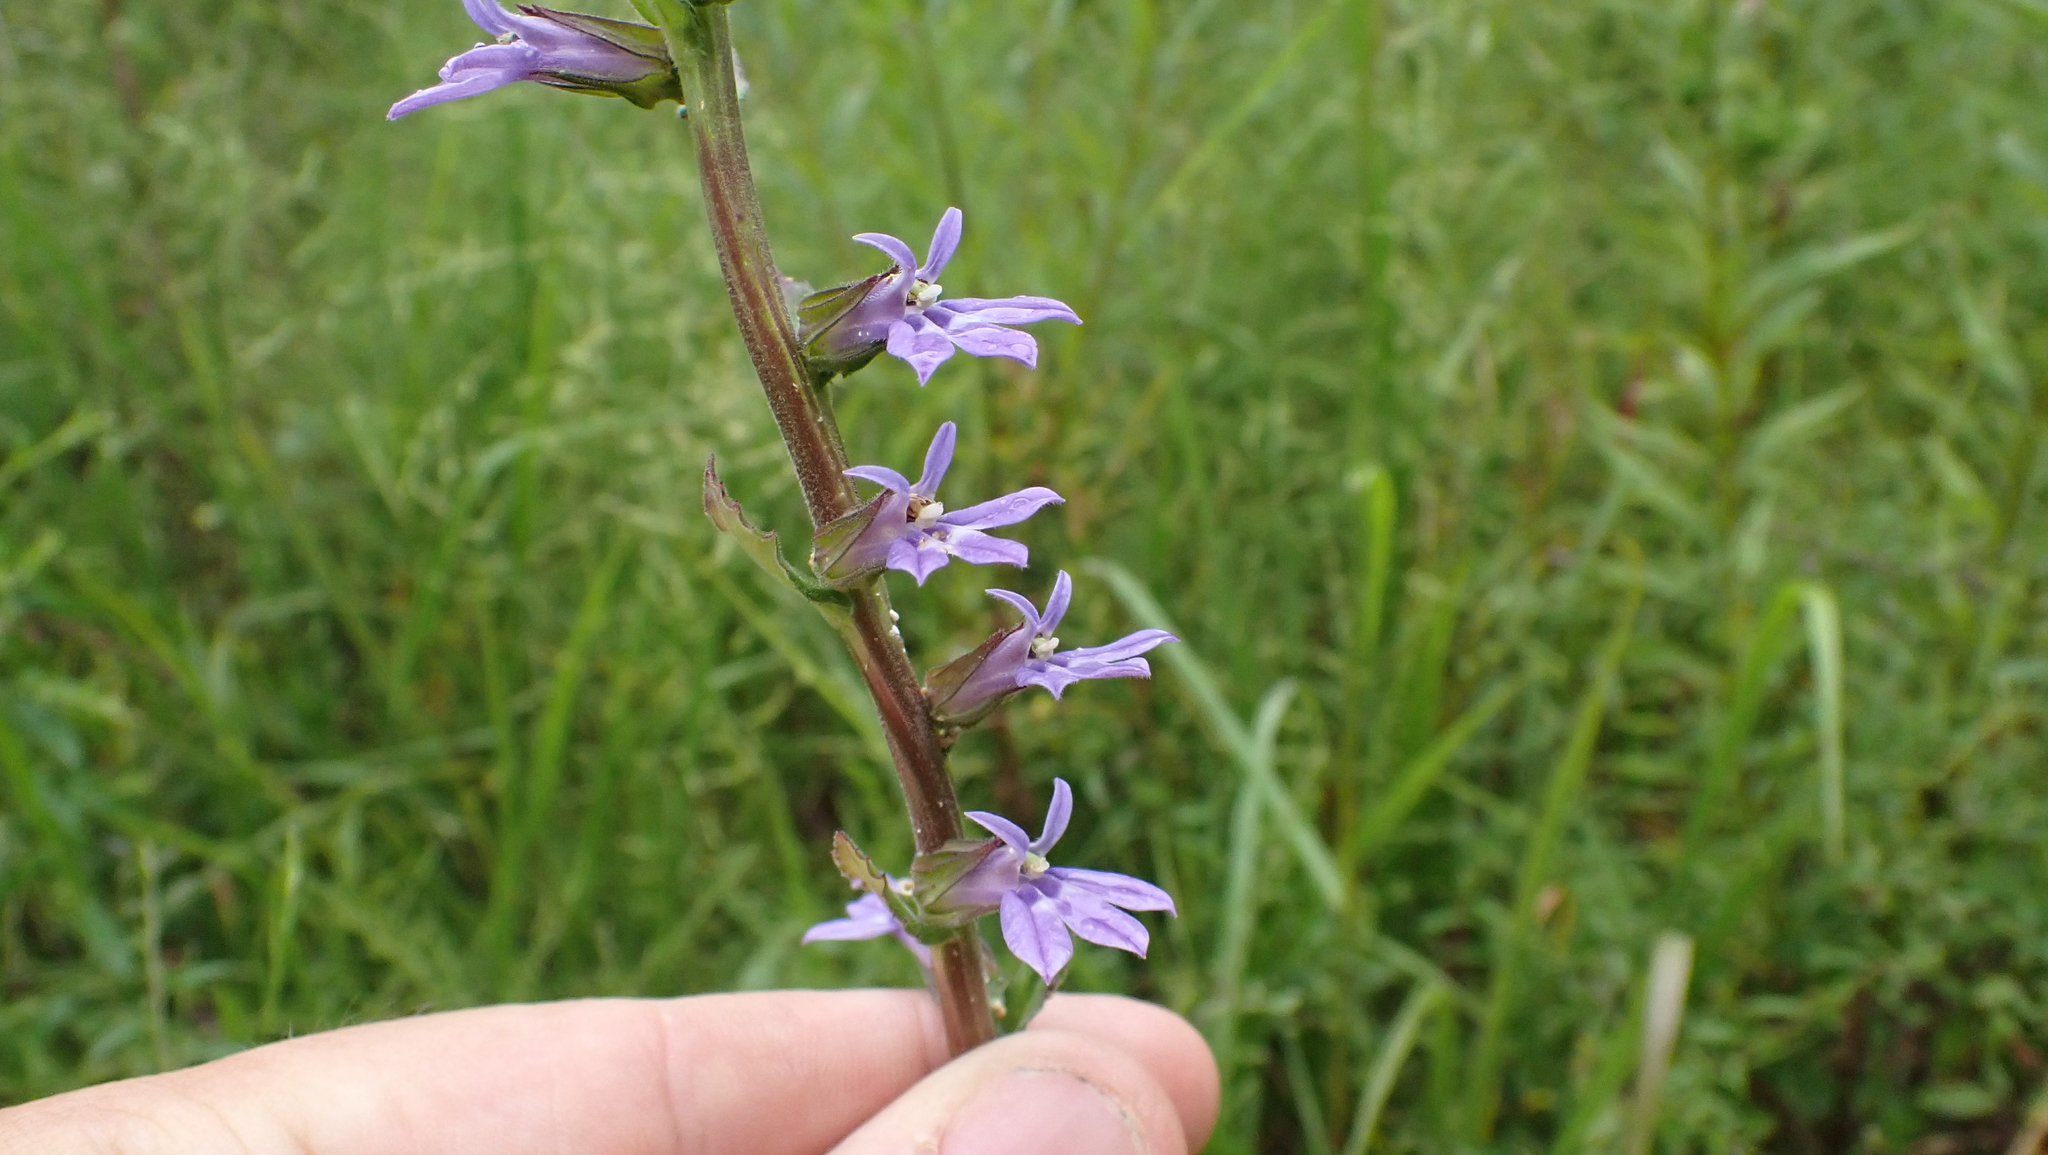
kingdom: Plantae
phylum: Tracheophyta
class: Magnoliopsida
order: Asterales
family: Campanulaceae
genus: Lobelia
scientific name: Lobelia puberula
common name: Purple dewdrop
